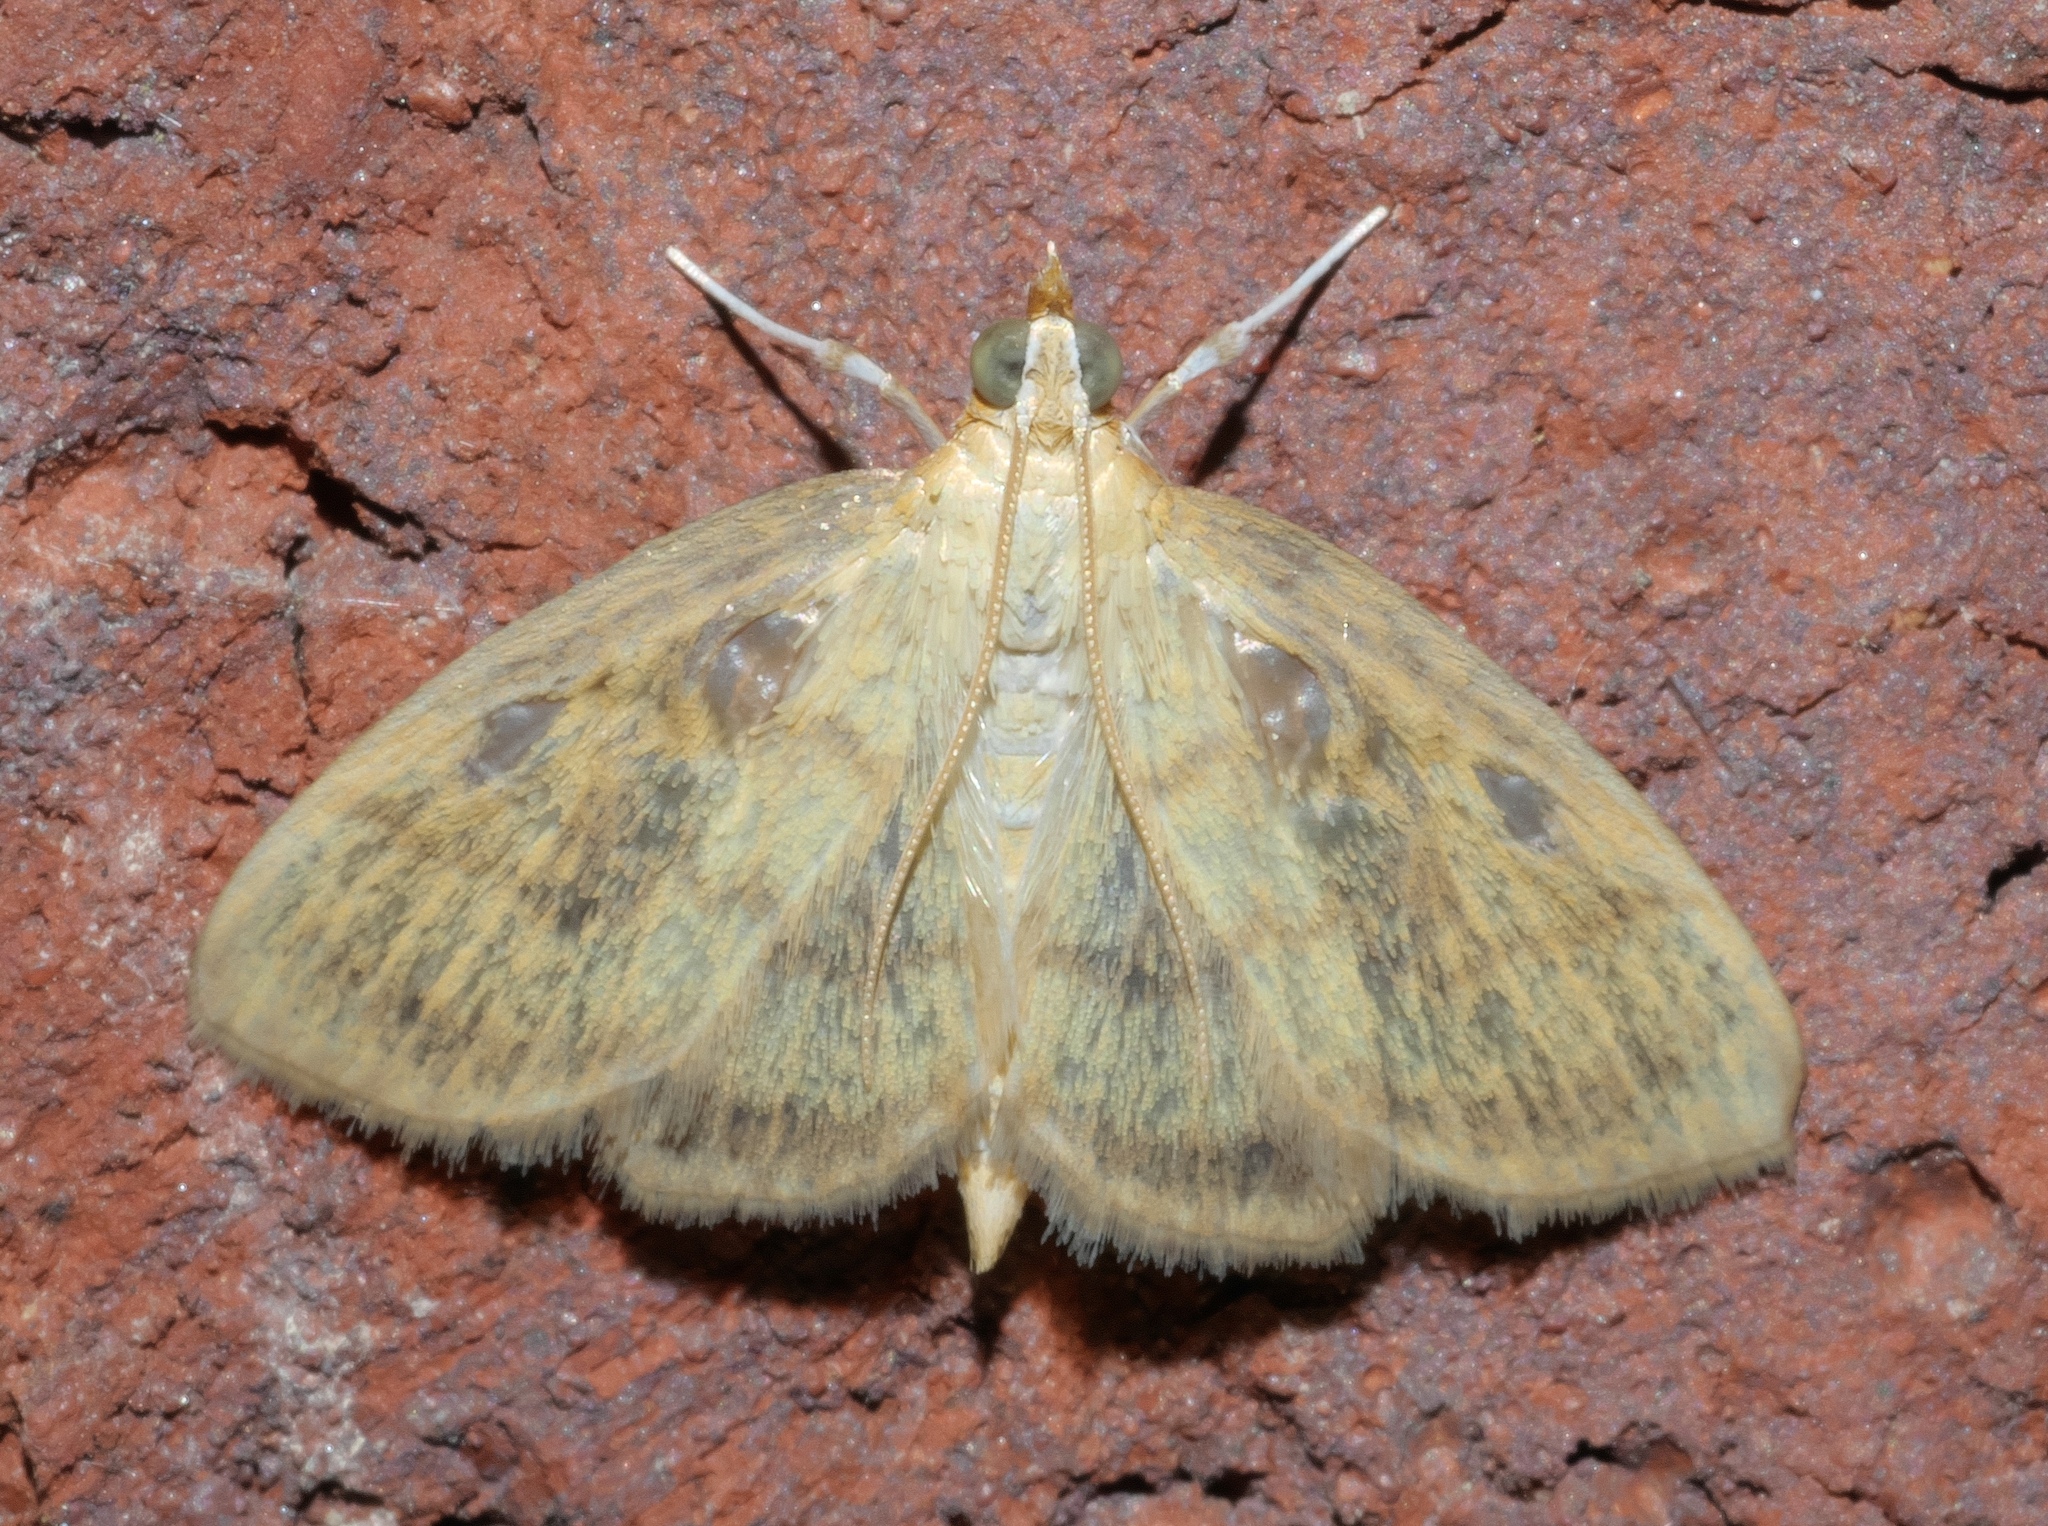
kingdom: Animalia
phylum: Arthropoda
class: Insecta
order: Lepidoptera
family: Crambidae
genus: Crocidophora
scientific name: Crocidophora tuberculalis
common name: Pale-winged crocidiphora moth
